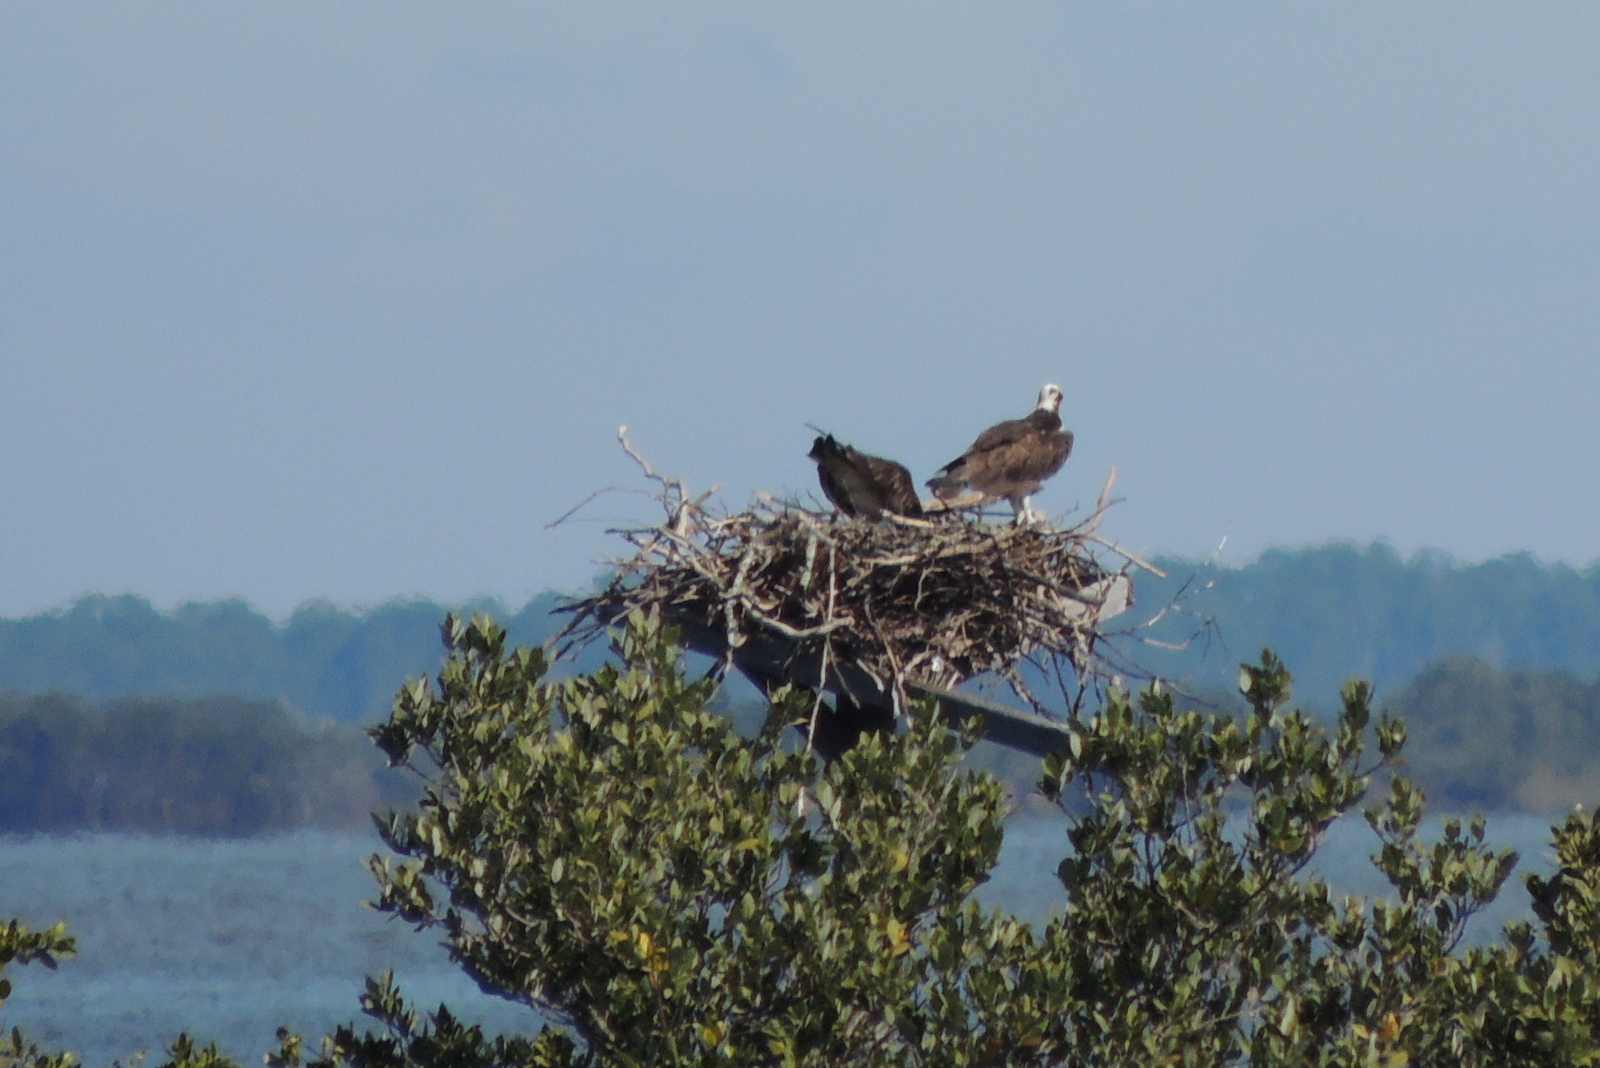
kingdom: Animalia
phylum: Chordata
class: Aves
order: Accipitriformes
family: Pandionidae
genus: Pandion
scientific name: Pandion haliaetus
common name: Osprey
